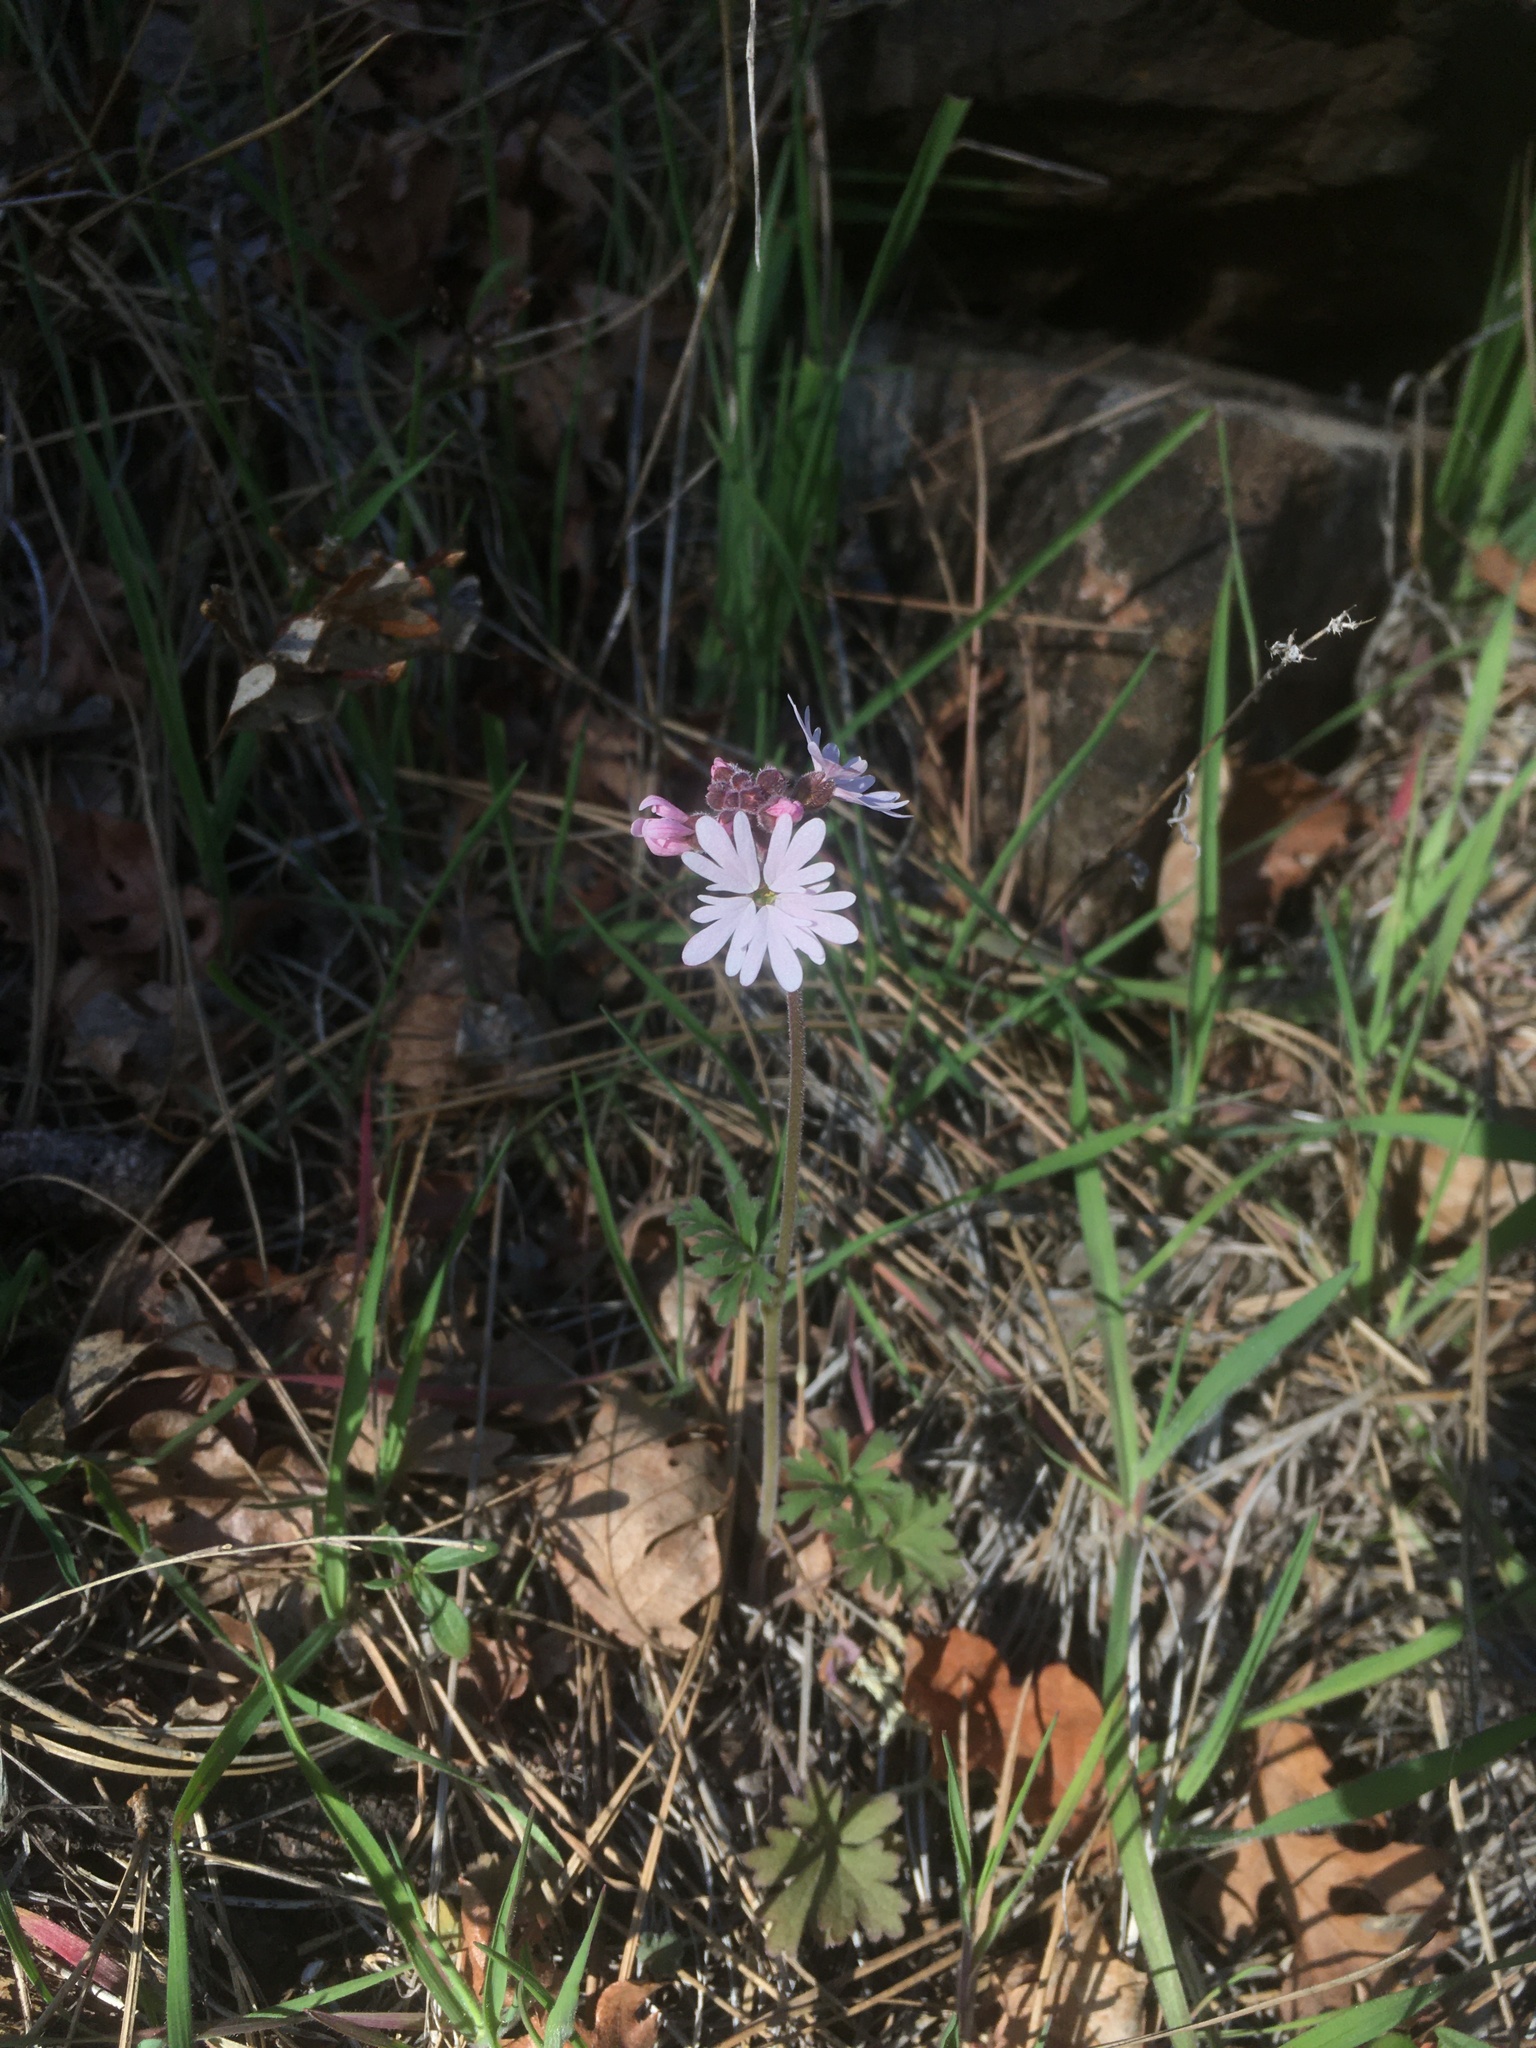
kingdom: Plantae
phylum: Tracheophyta
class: Magnoliopsida
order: Saxifragales
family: Saxifragaceae
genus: Lithophragma
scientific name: Lithophragma parviflorum
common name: Small-flowered fringe-cup
